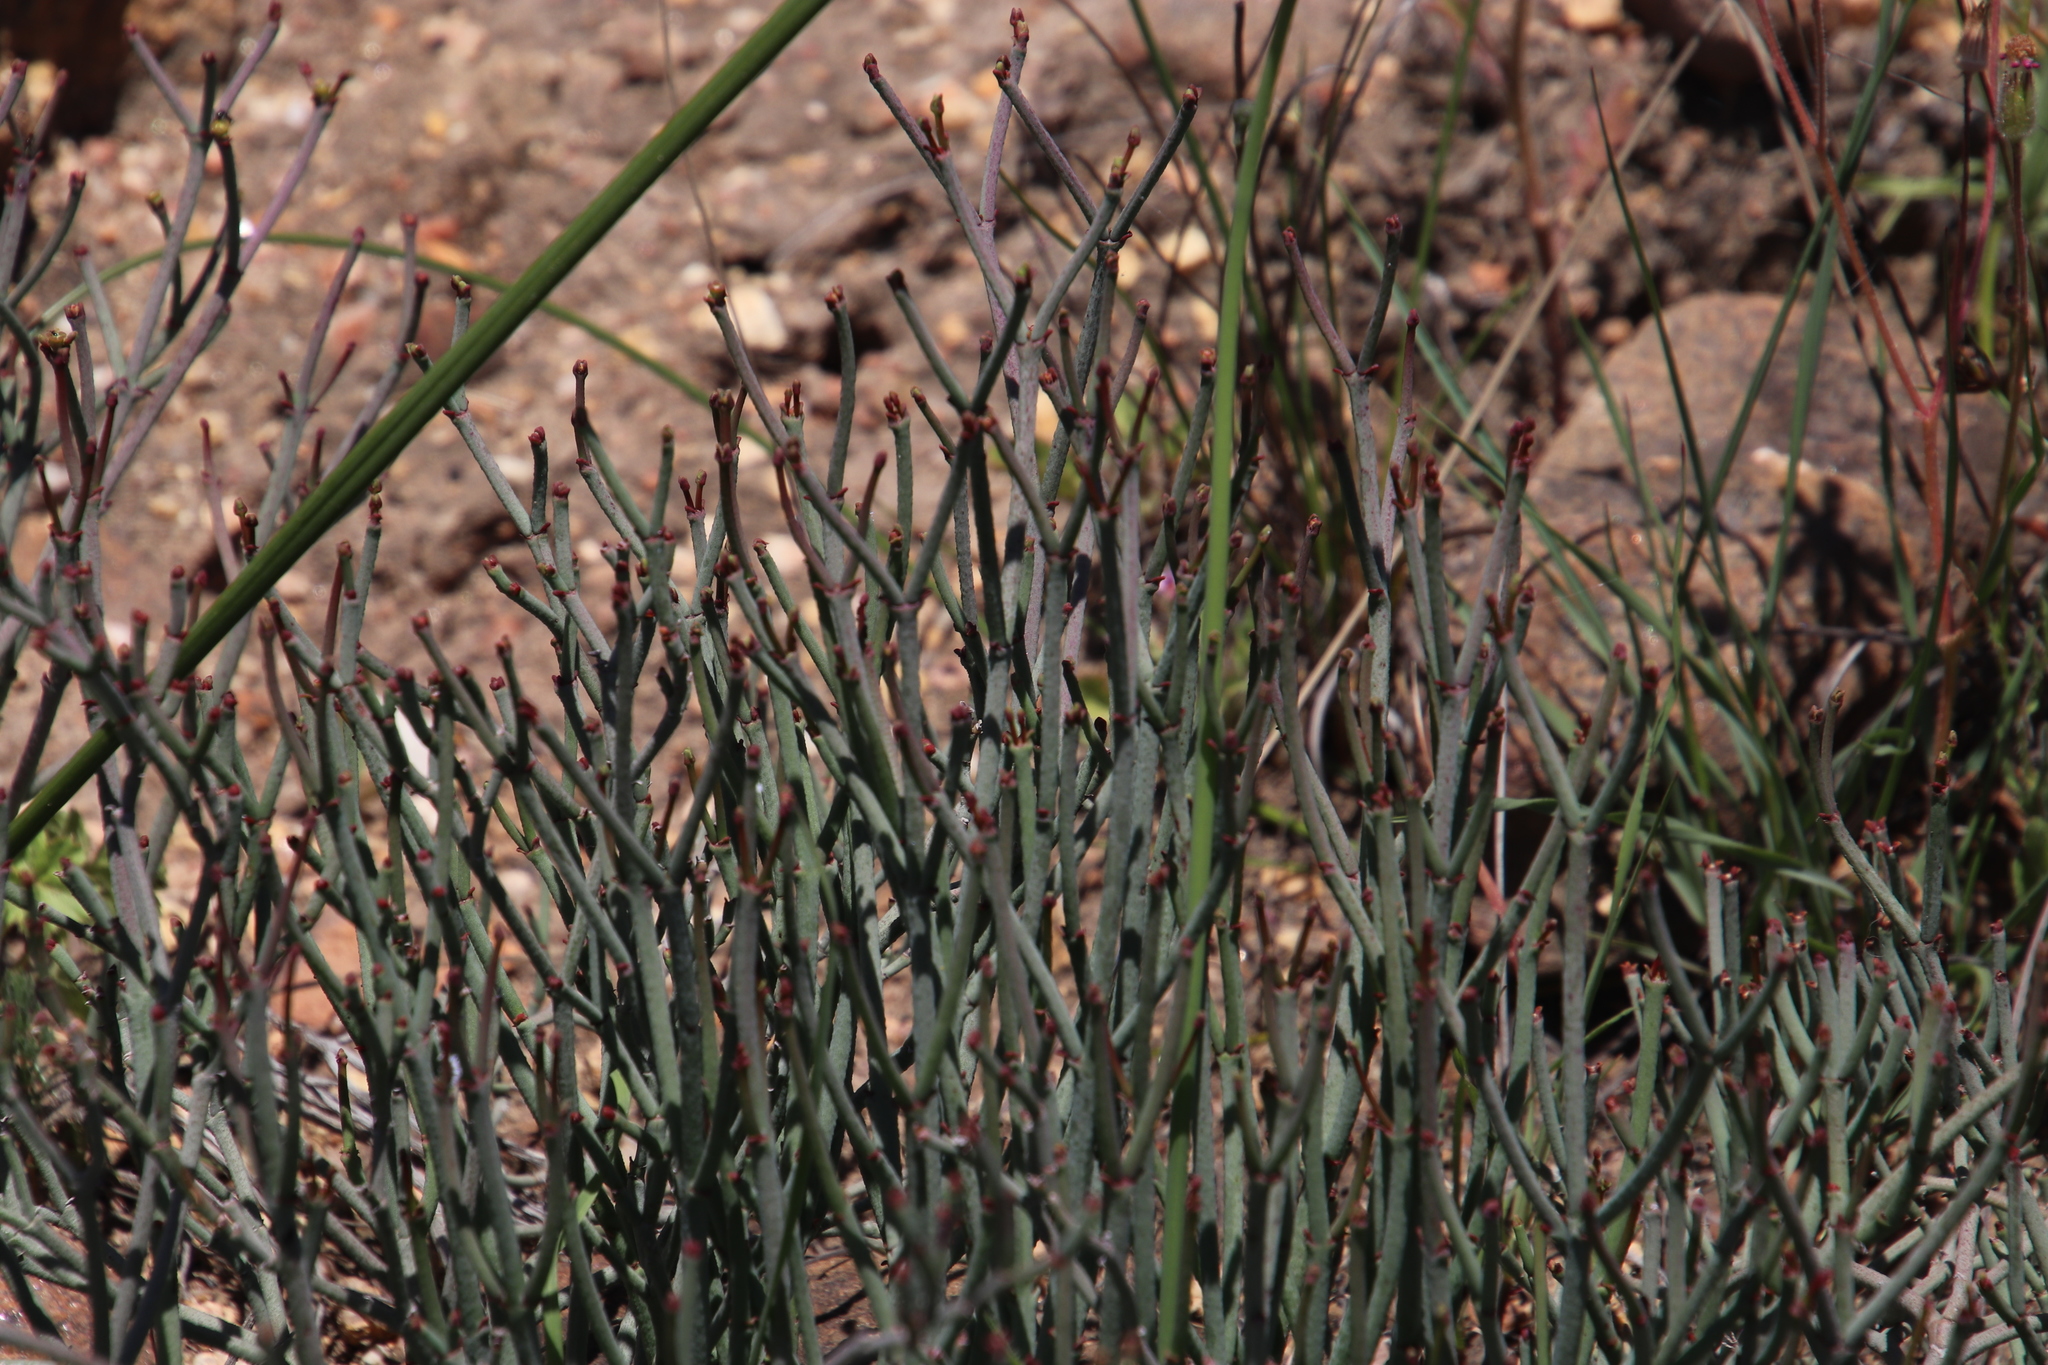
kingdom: Plantae
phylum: Tracheophyta
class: Magnoliopsida
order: Malpighiales
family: Euphorbiaceae
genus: Euphorbia
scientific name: Euphorbia tenax
